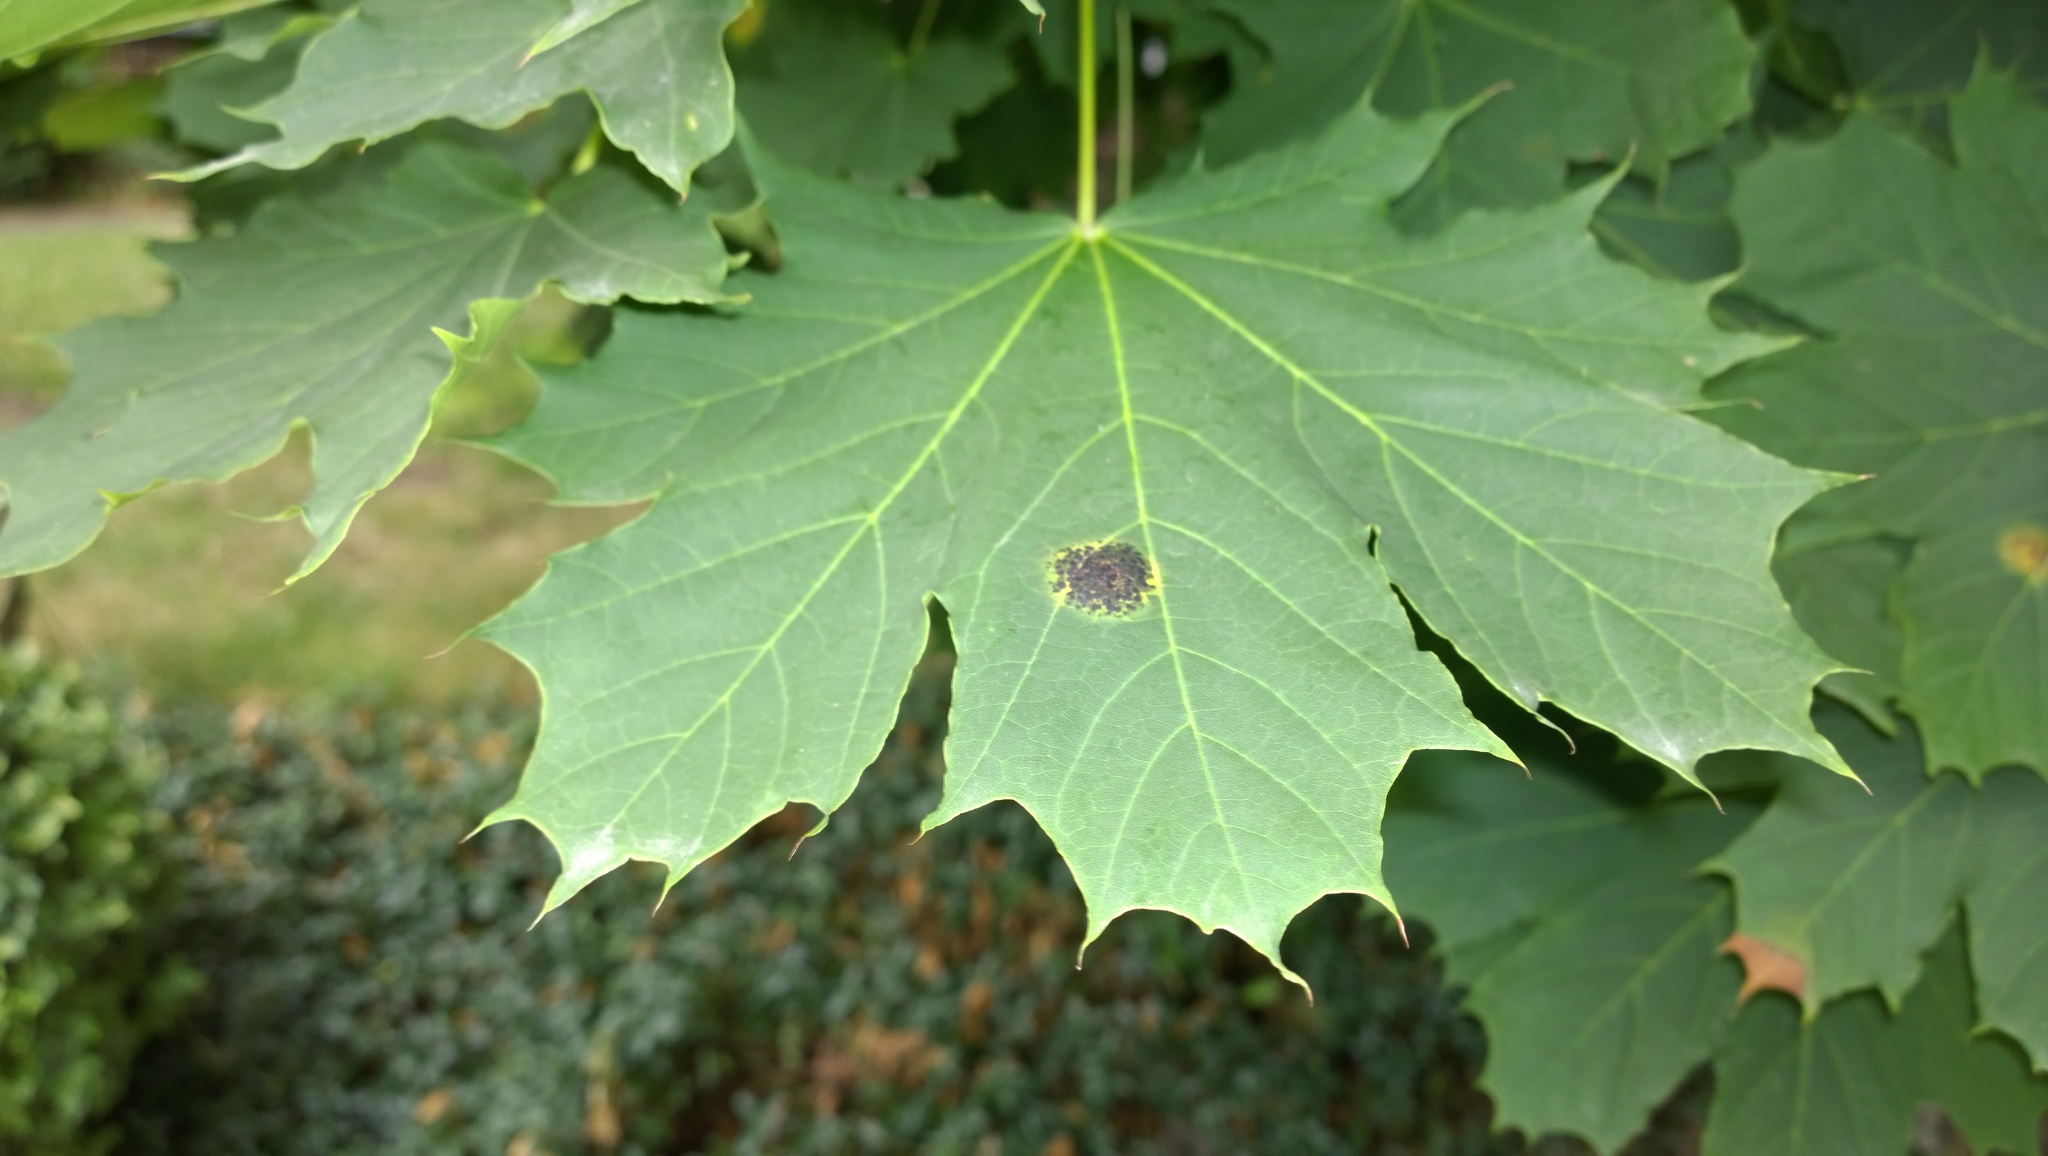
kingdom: Fungi
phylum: Ascomycota
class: Leotiomycetes
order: Rhytismatales
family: Rhytismataceae
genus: Rhytisma
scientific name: Rhytisma acerinum
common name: European tar spot
